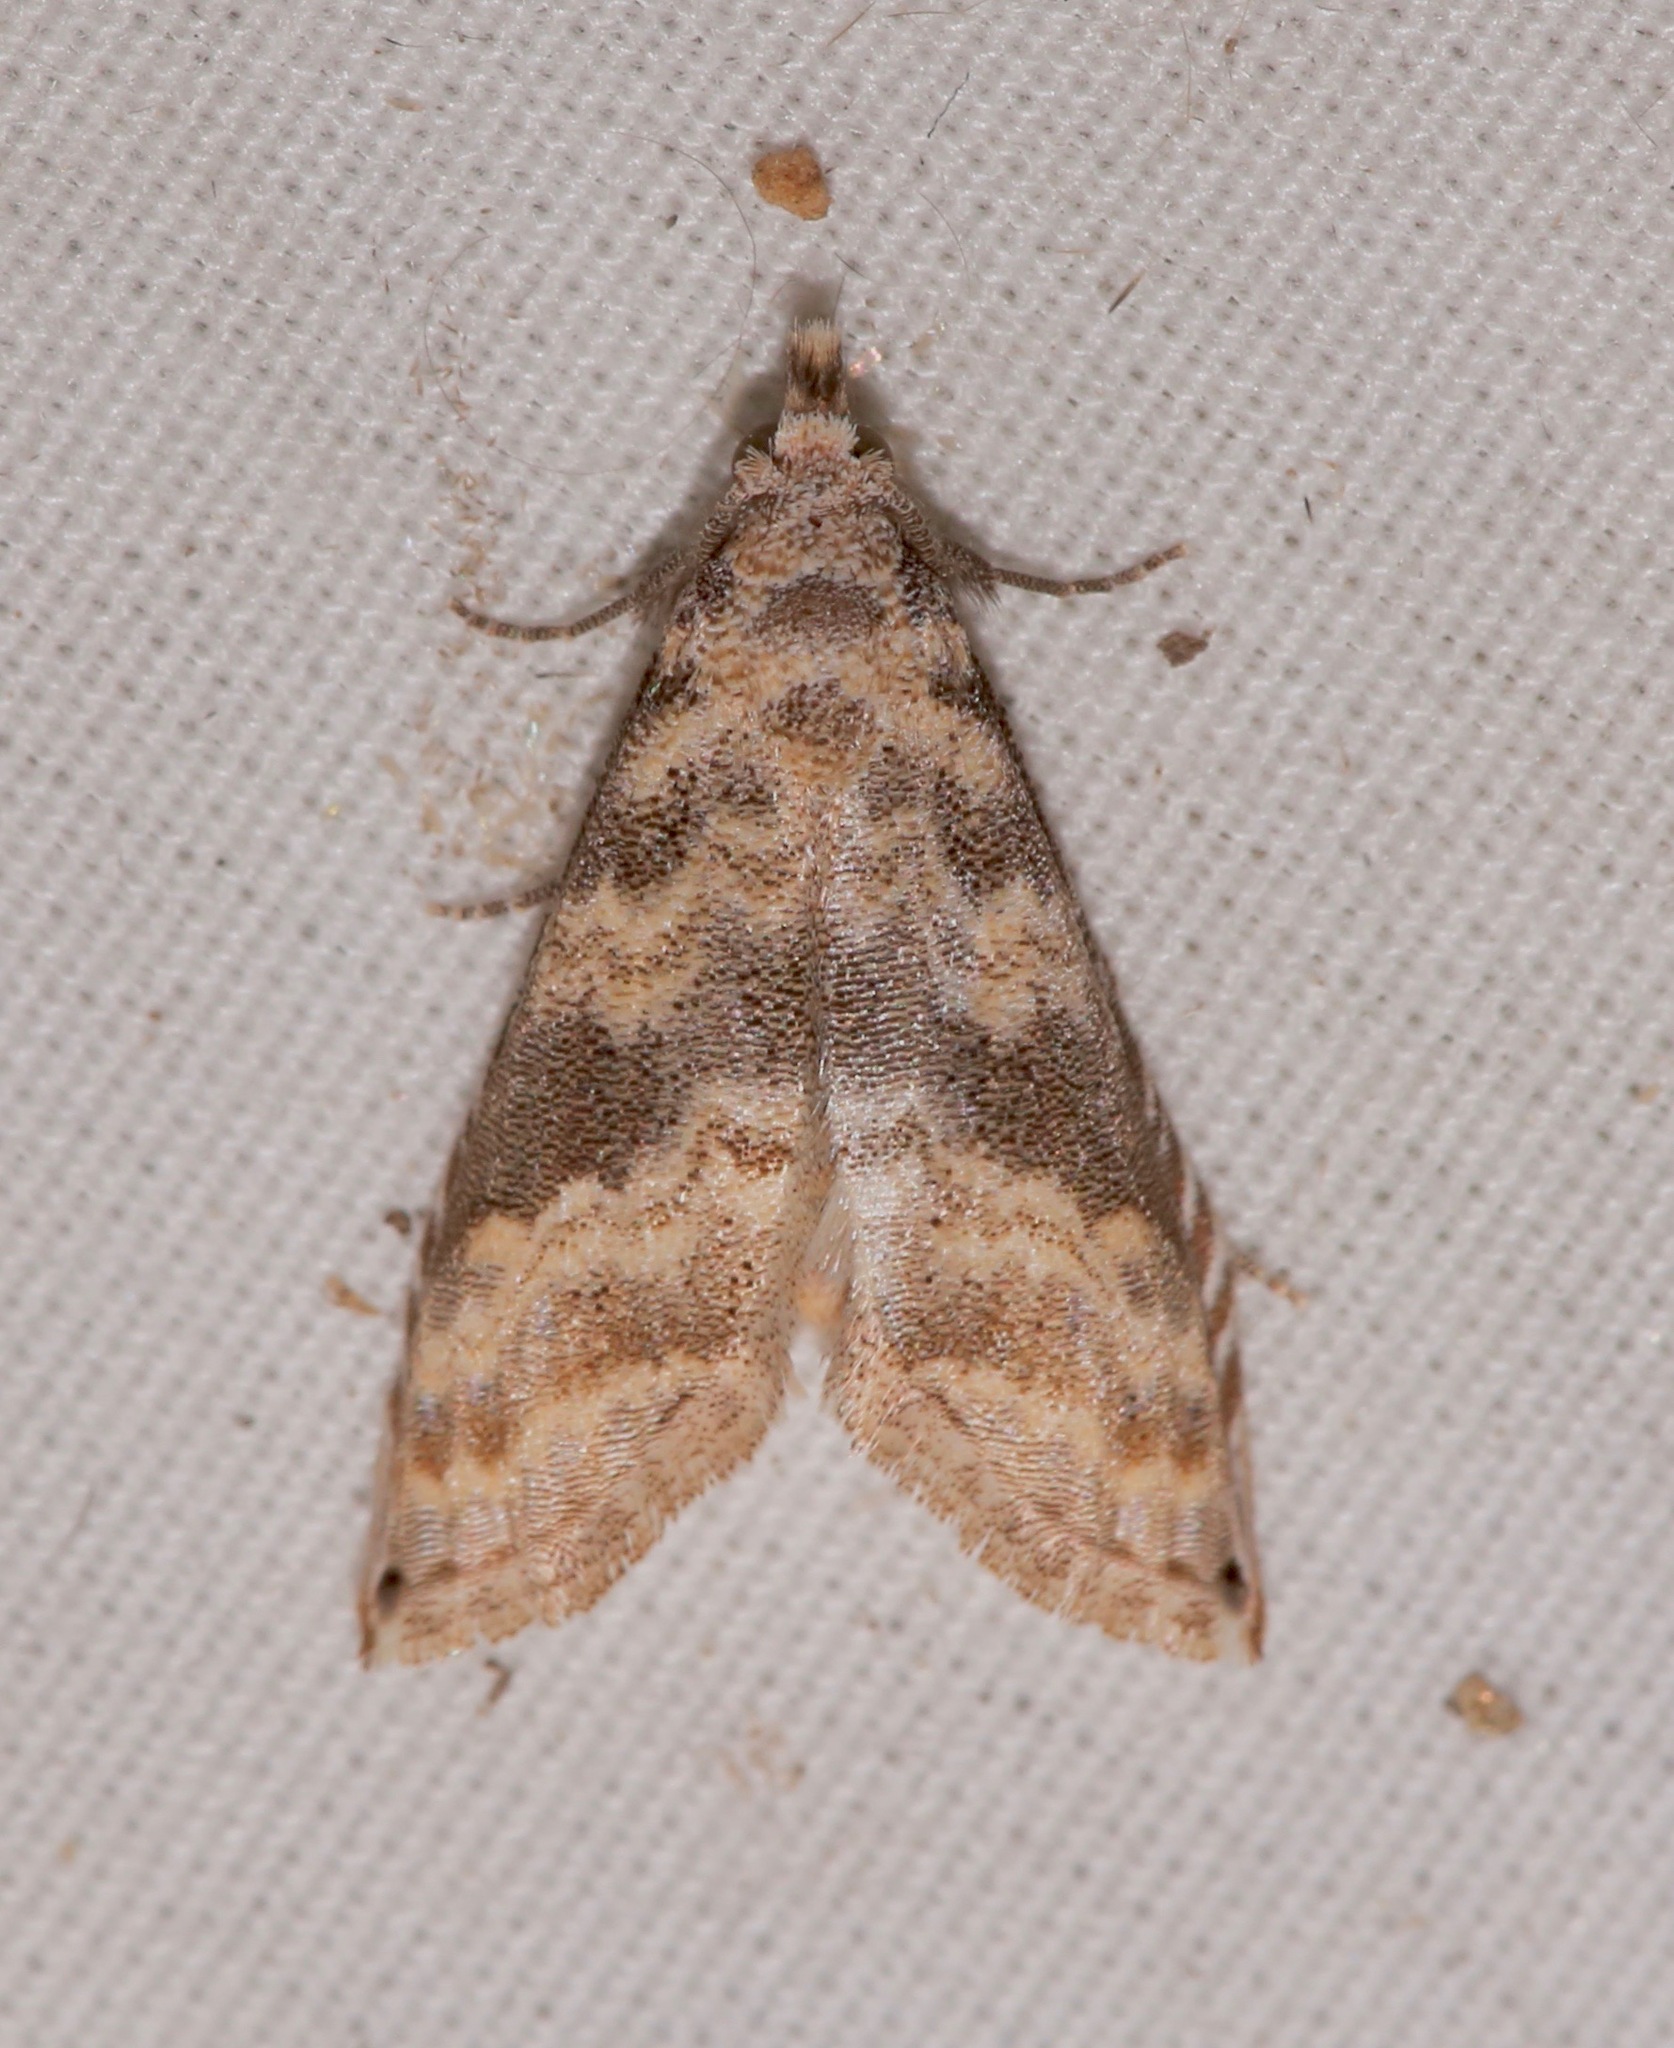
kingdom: Animalia
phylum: Arthropoda
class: Insecta
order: Lepidoptera
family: Noctuidae
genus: Phobolosia
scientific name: Phobolosia anfracta
